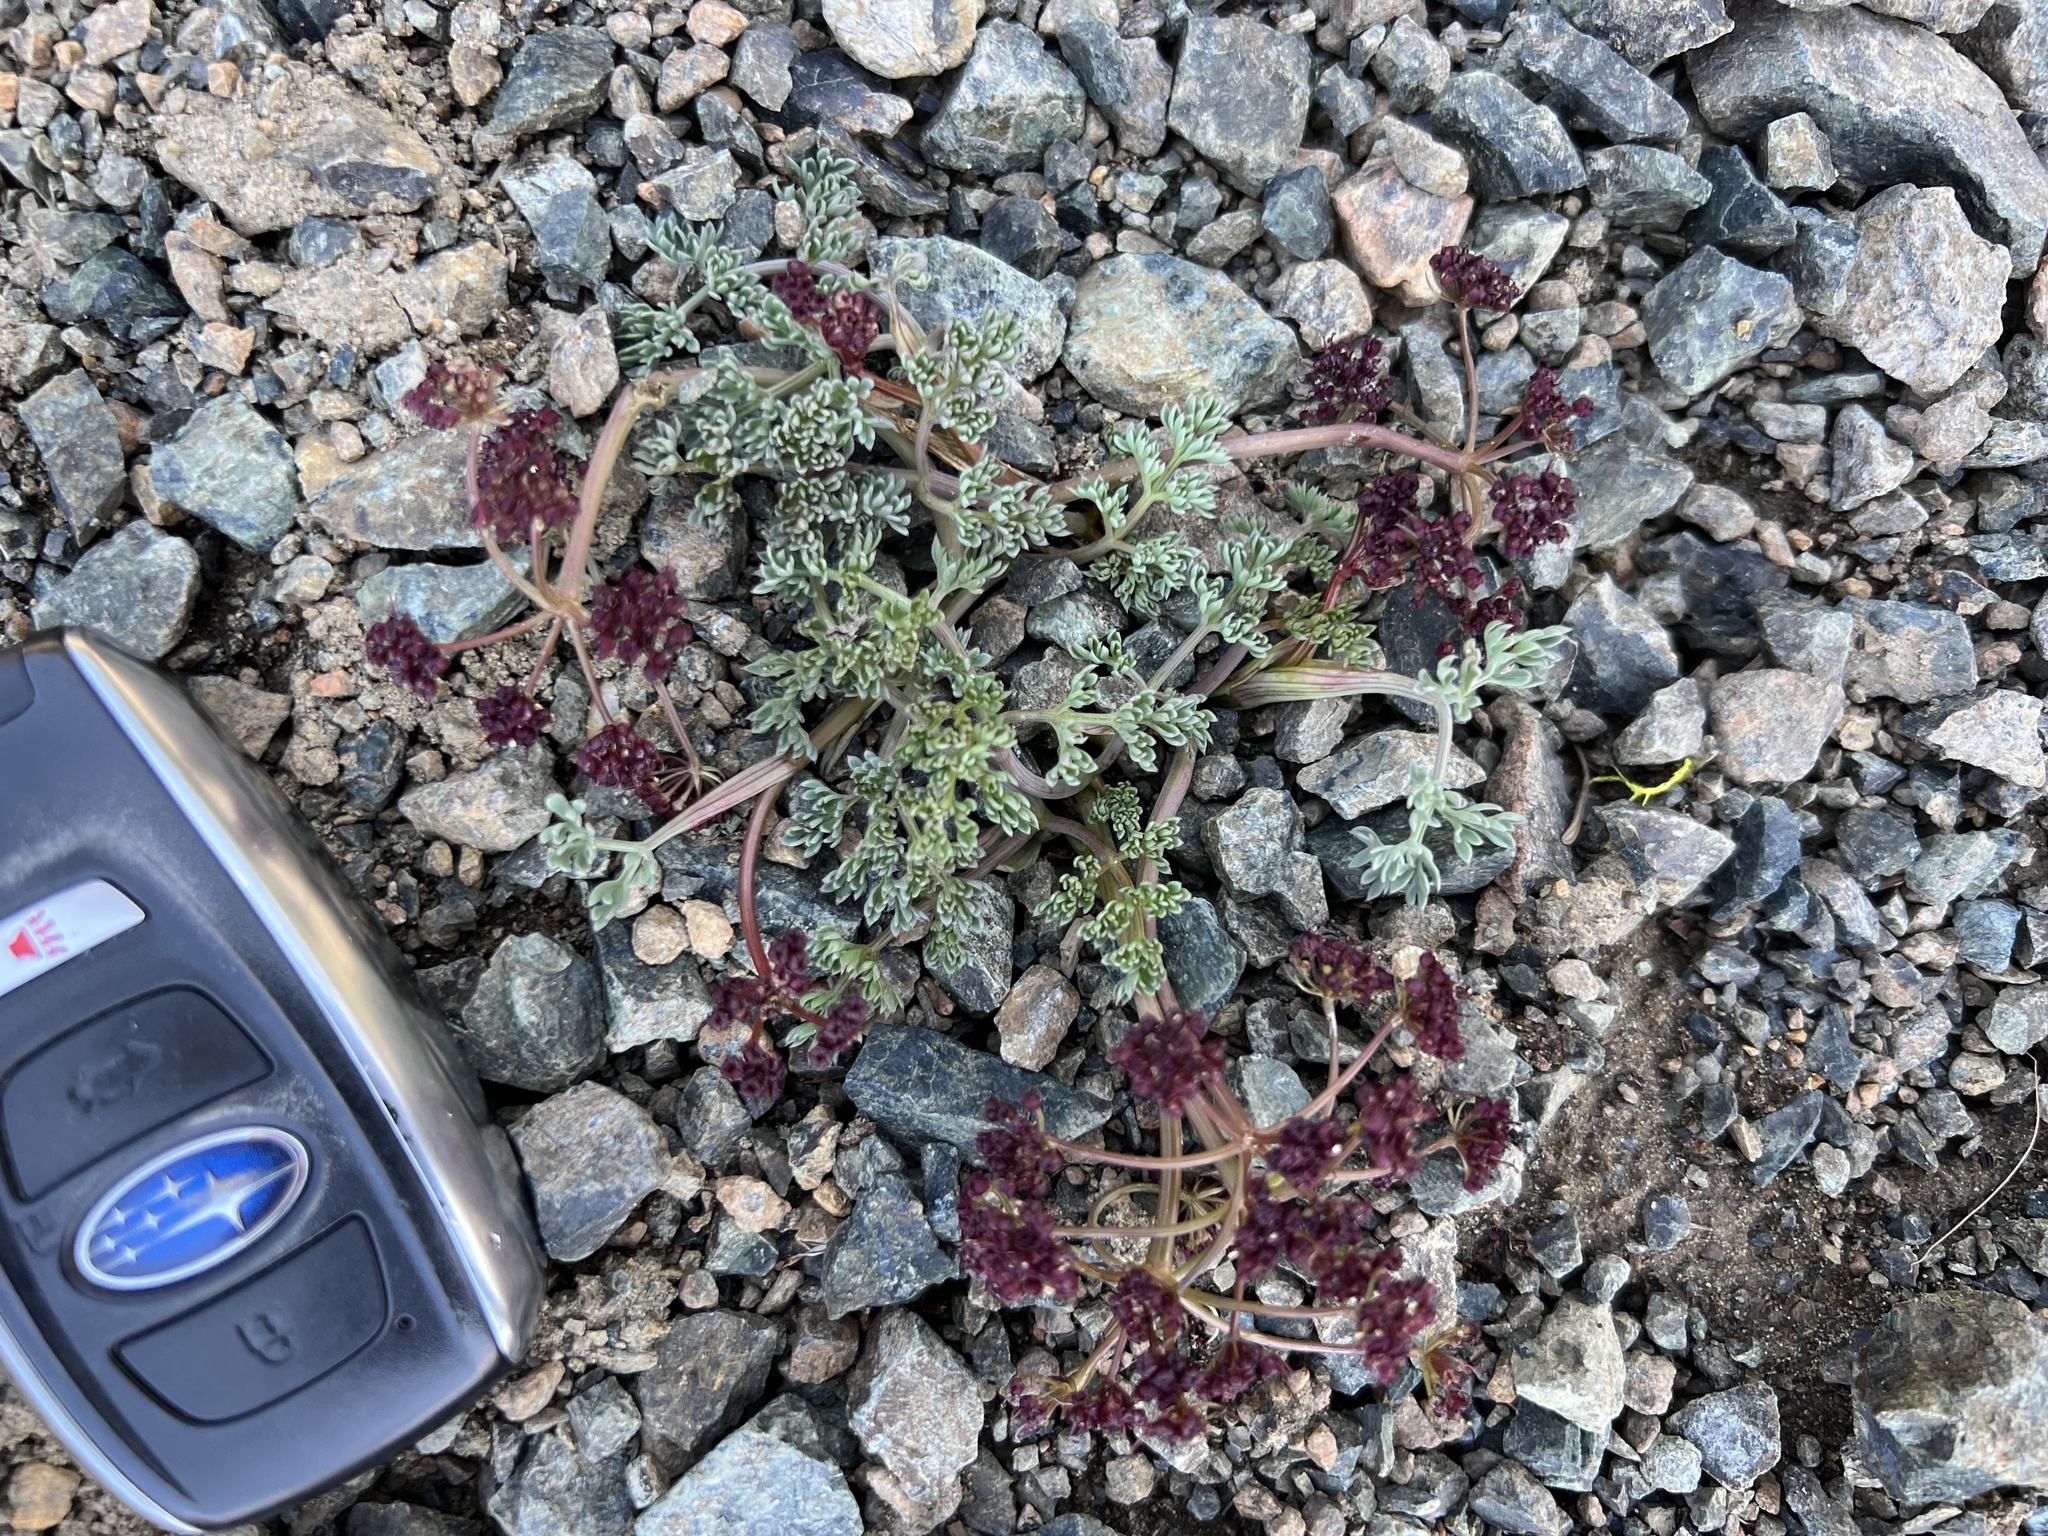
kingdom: Plantae
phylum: Tracheophyta
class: Magnoliopsida
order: Apiales
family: Apiaceae
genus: Lomatium
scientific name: Lomatium cuspidatum
